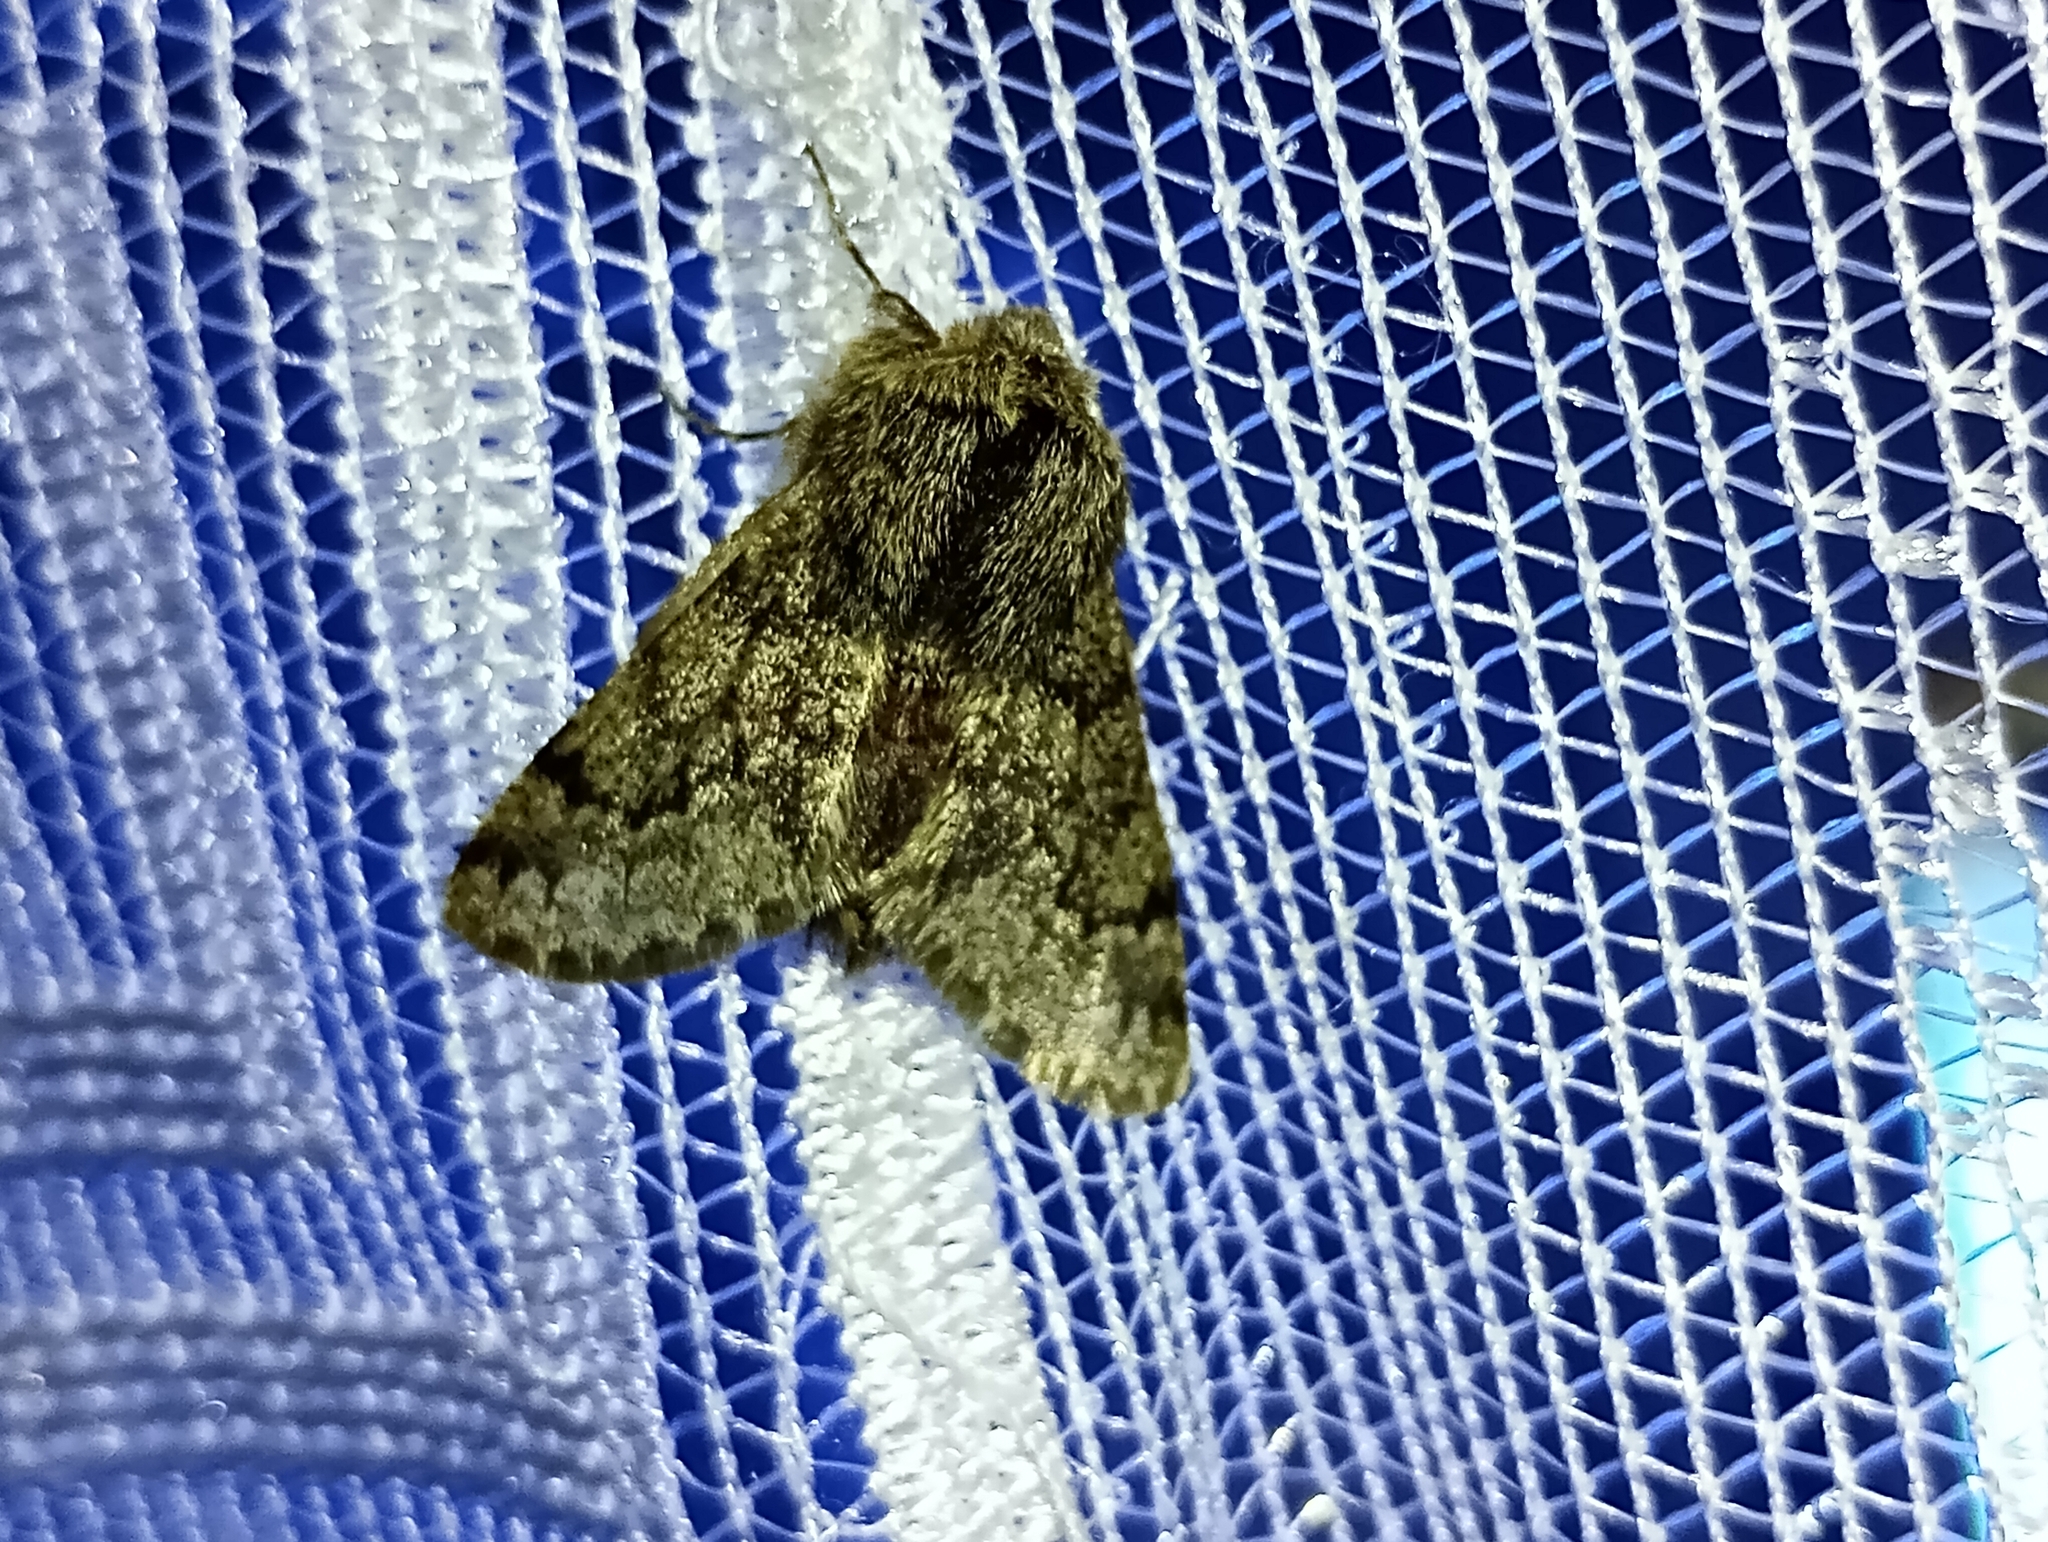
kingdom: Animalia
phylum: Arthropoda
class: Insecta
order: Lepidoptera
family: Geometridae
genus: Apocheima
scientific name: Apocheima hispidaria
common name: Small brindled beauty
